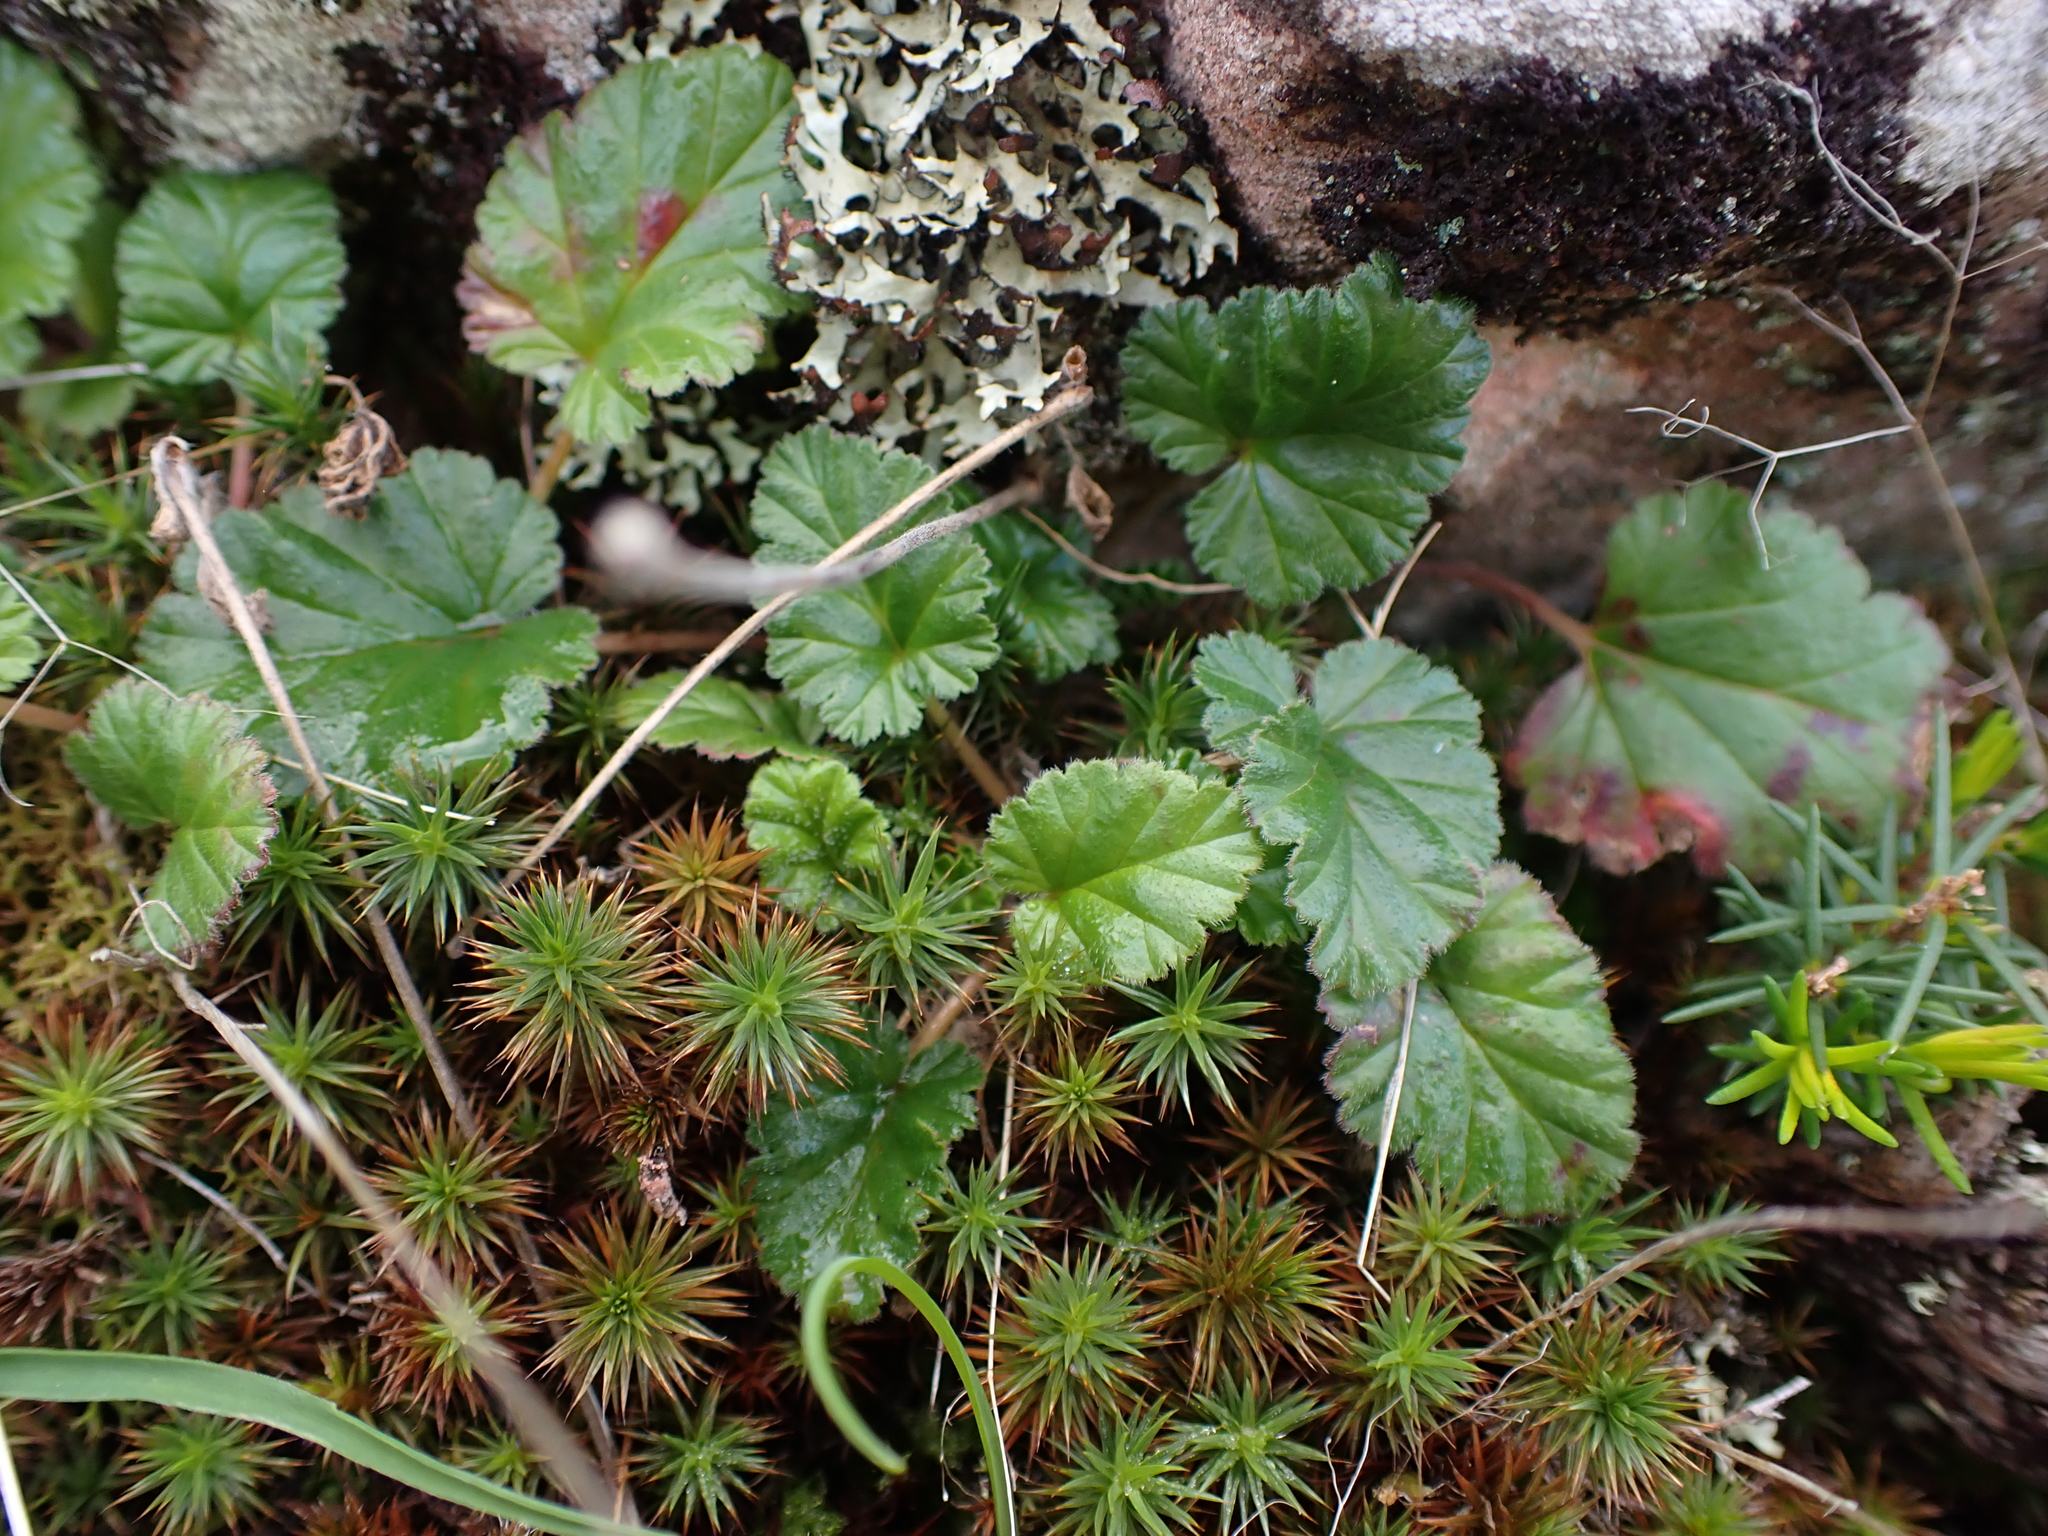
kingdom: Plantae
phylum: Tracheophyta
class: Magnoliopsida
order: Geraniales
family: Geraniaceae
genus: Pelargonium
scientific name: Pelargonium rodneyanum
